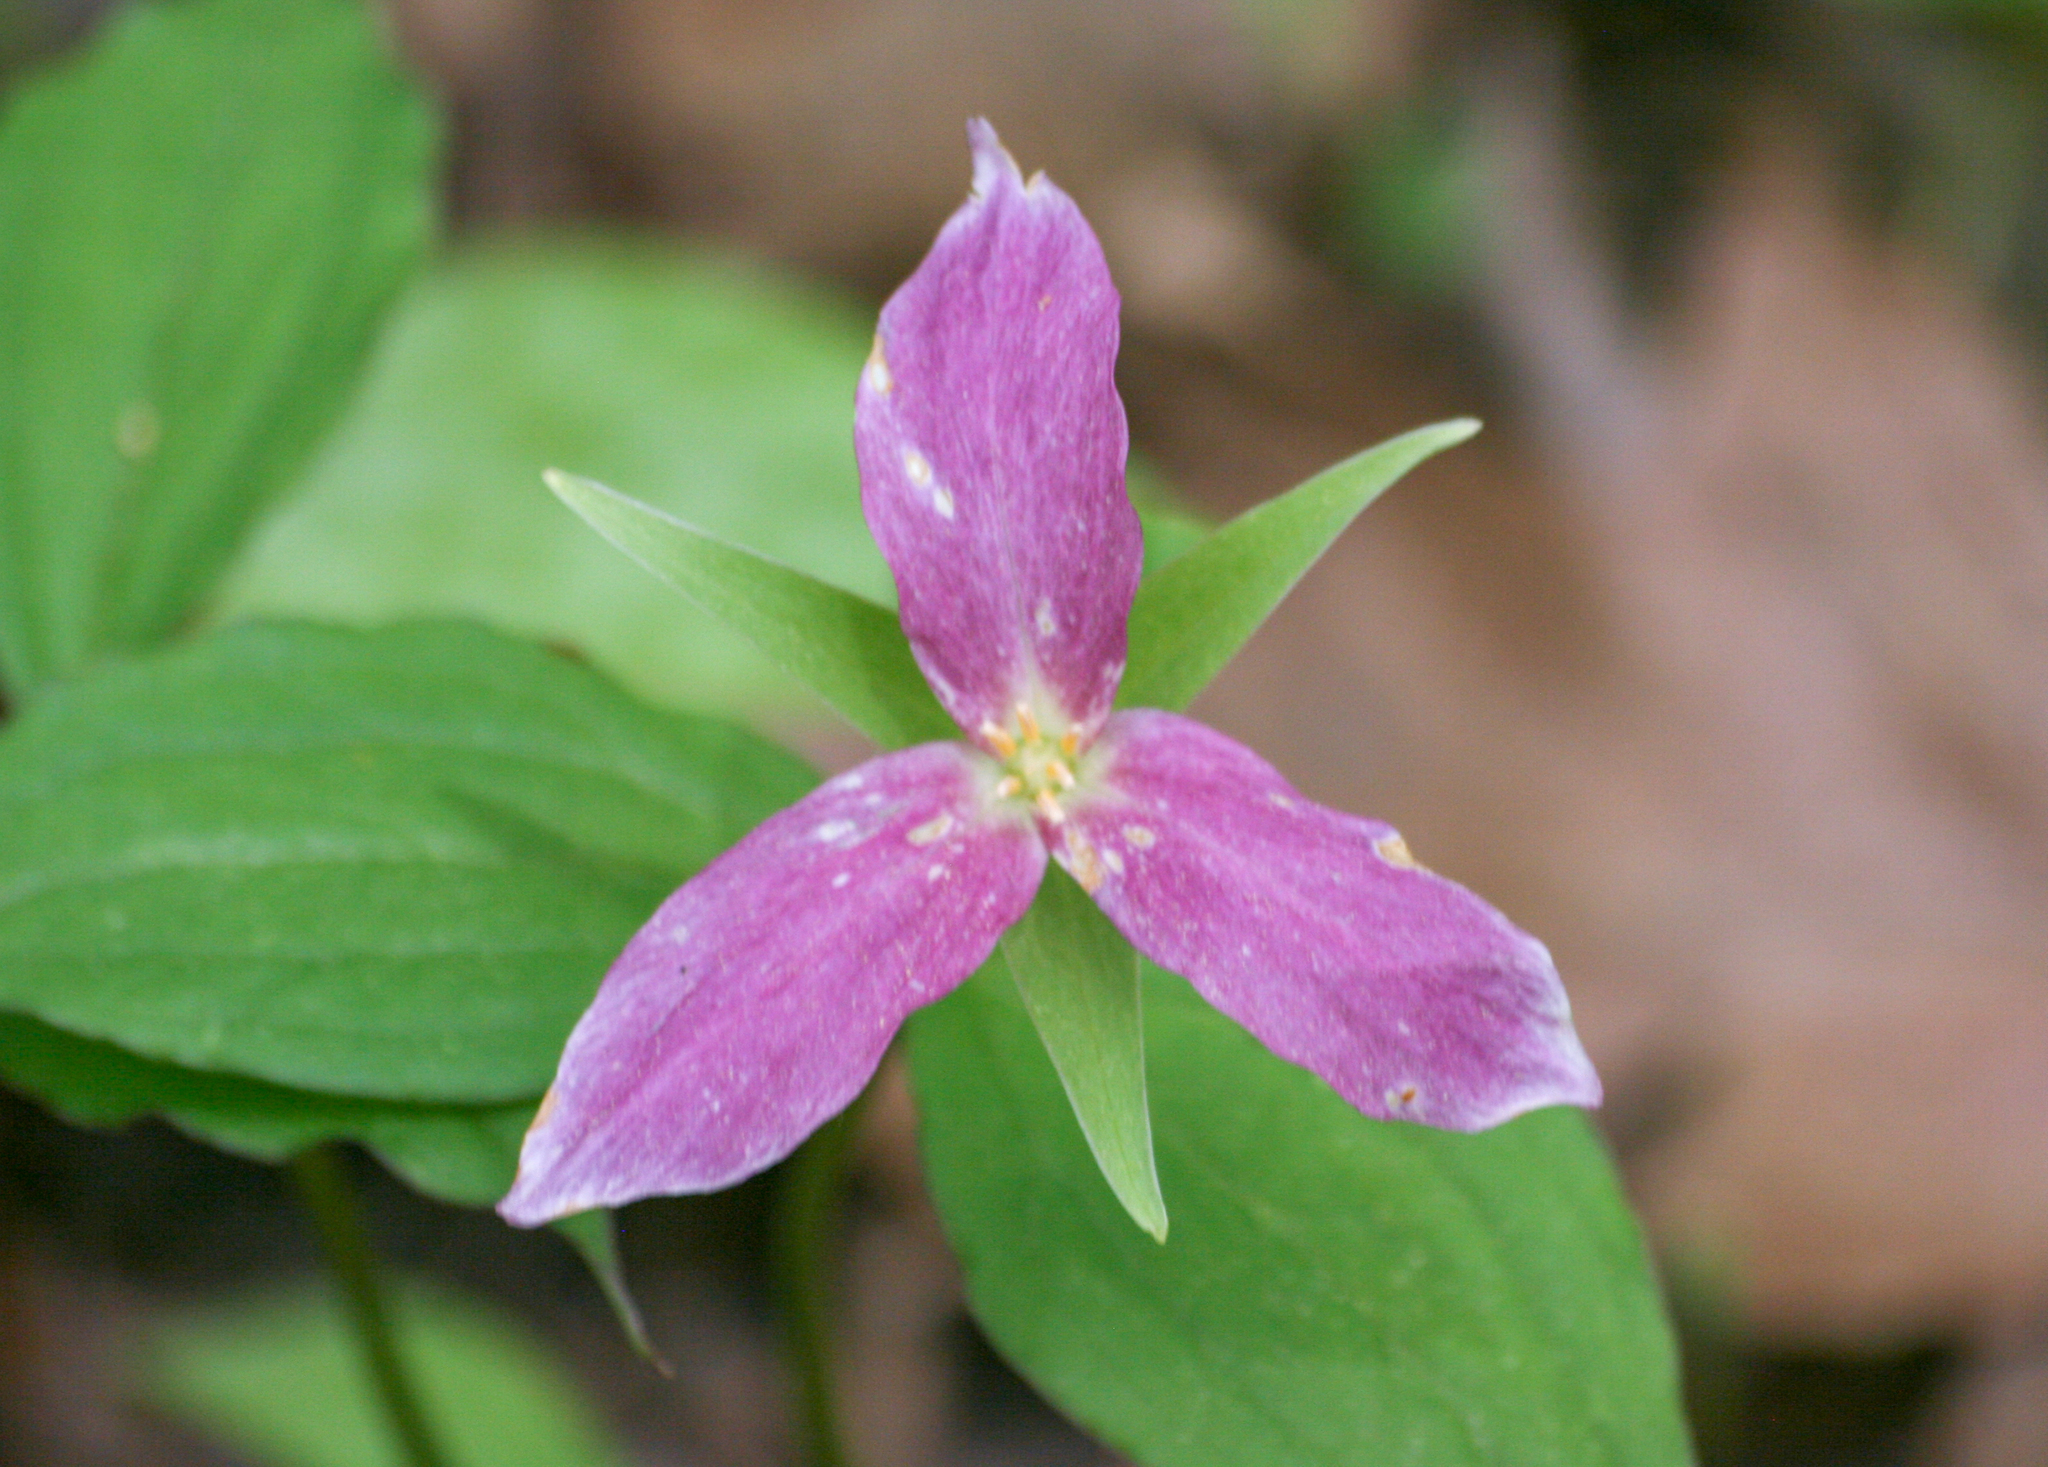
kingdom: Plantae
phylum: Tracheophyta
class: Liliopsida
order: Liliales
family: Melanthiaceae
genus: Trillium
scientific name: Trillium grandiflorum
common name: Great white trillium
